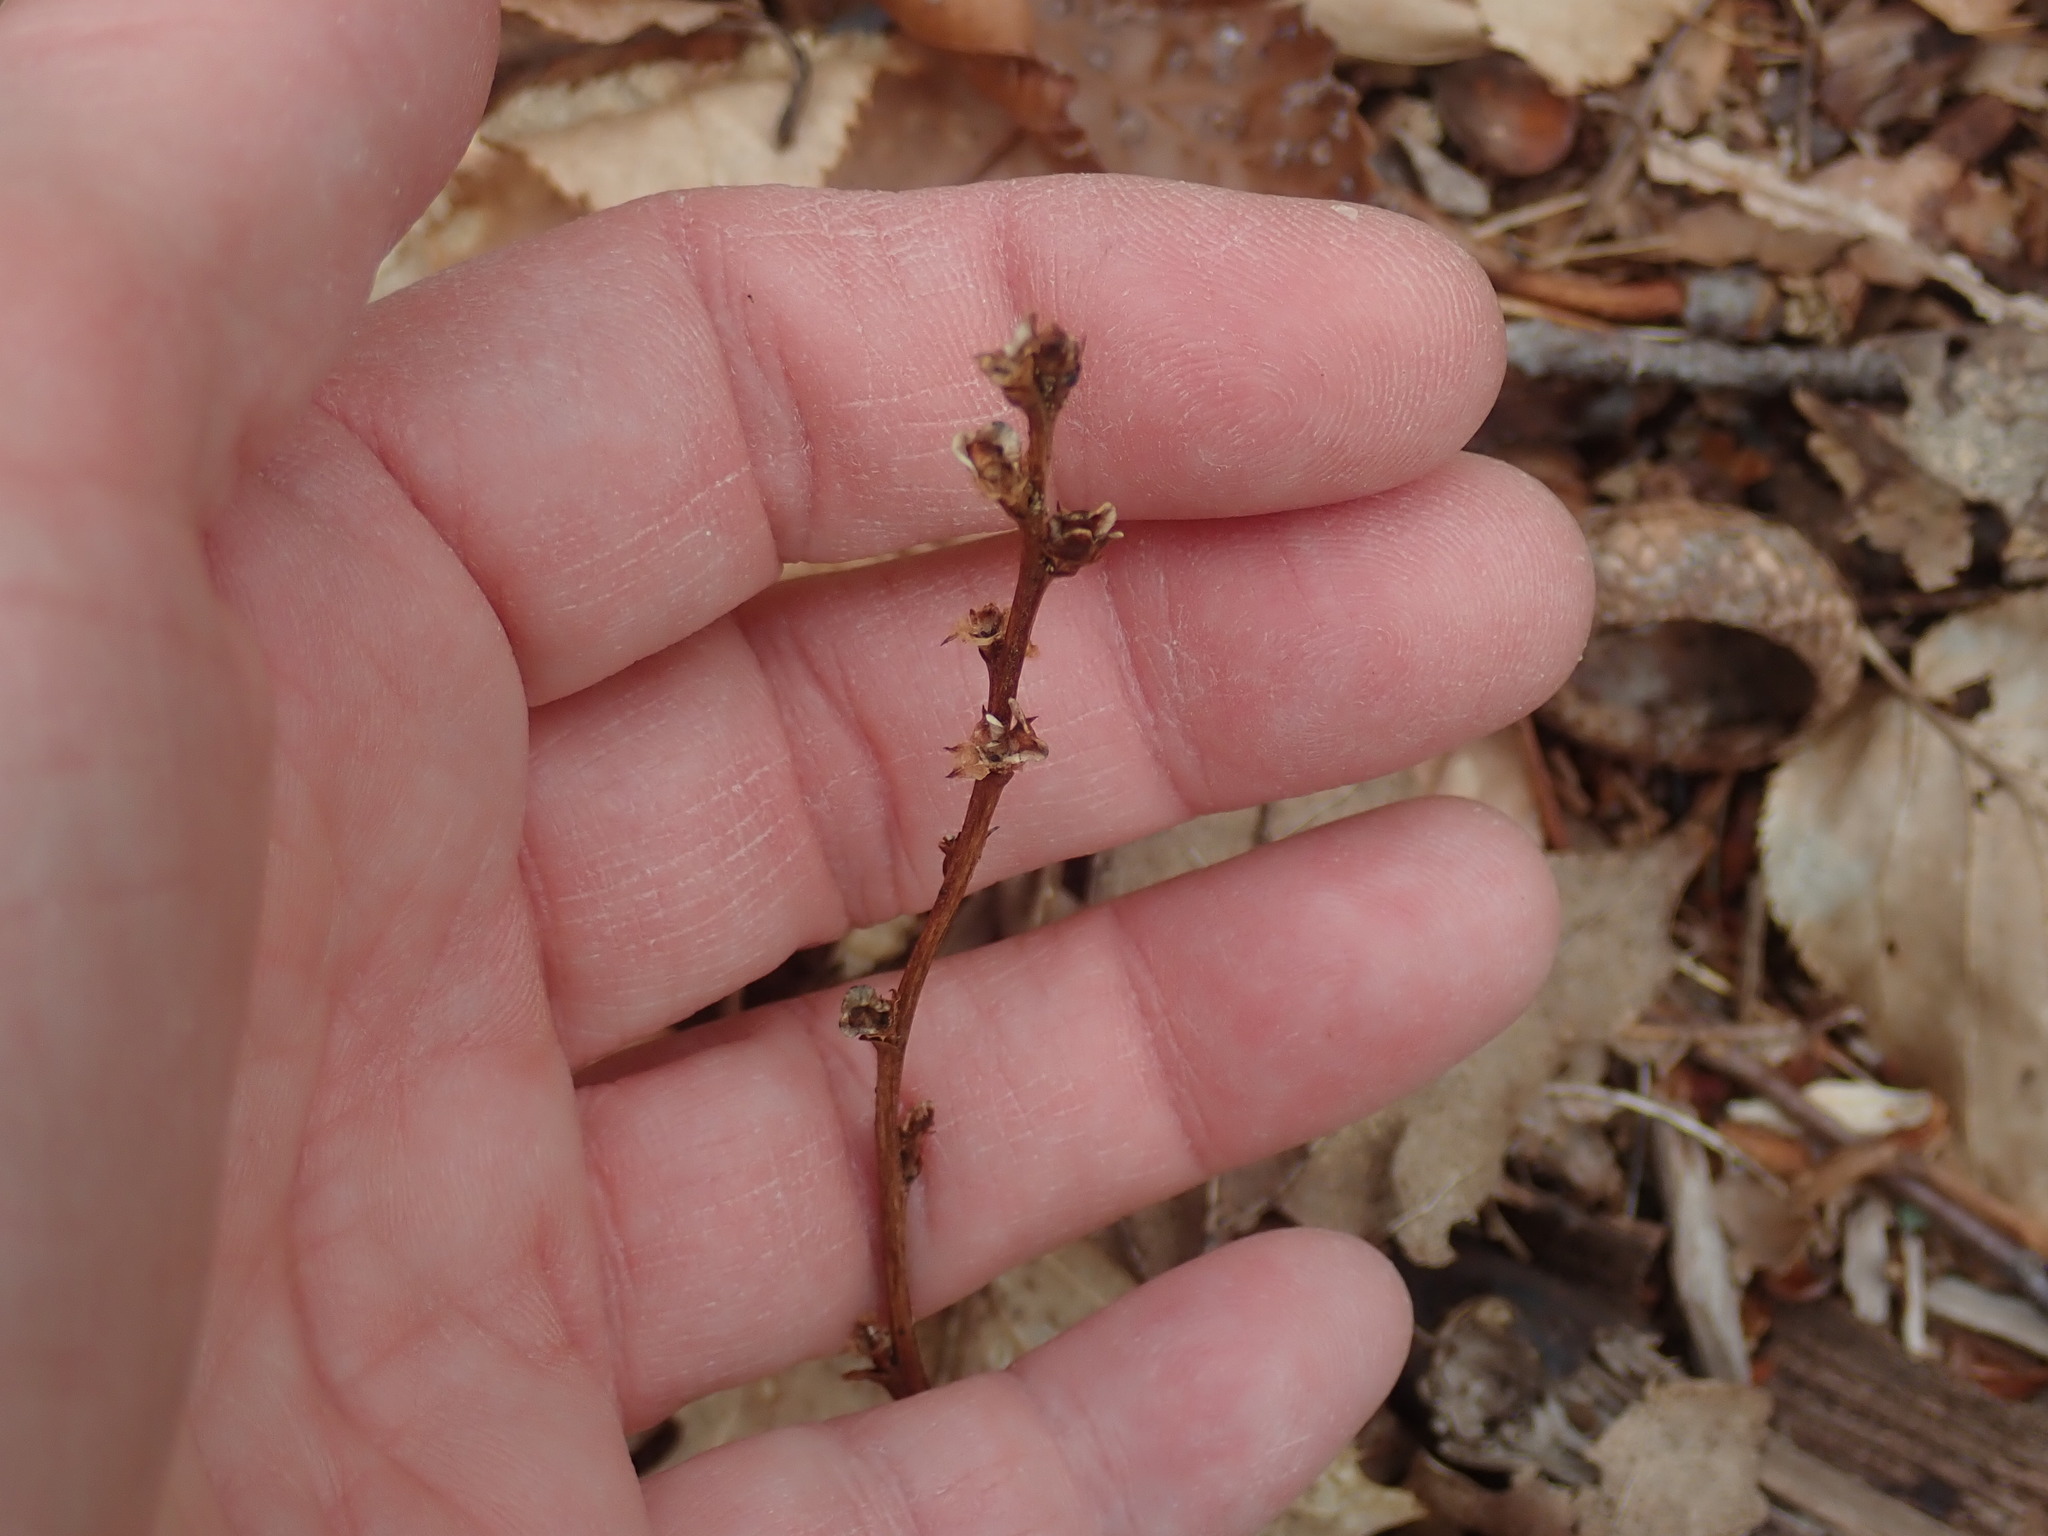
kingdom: Plantae
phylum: Tracheophyta
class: Magnoliopsida
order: Lamiales
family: Orobanchaceae
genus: Epifagus
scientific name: Epifagus virginiana
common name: Beechdrops
